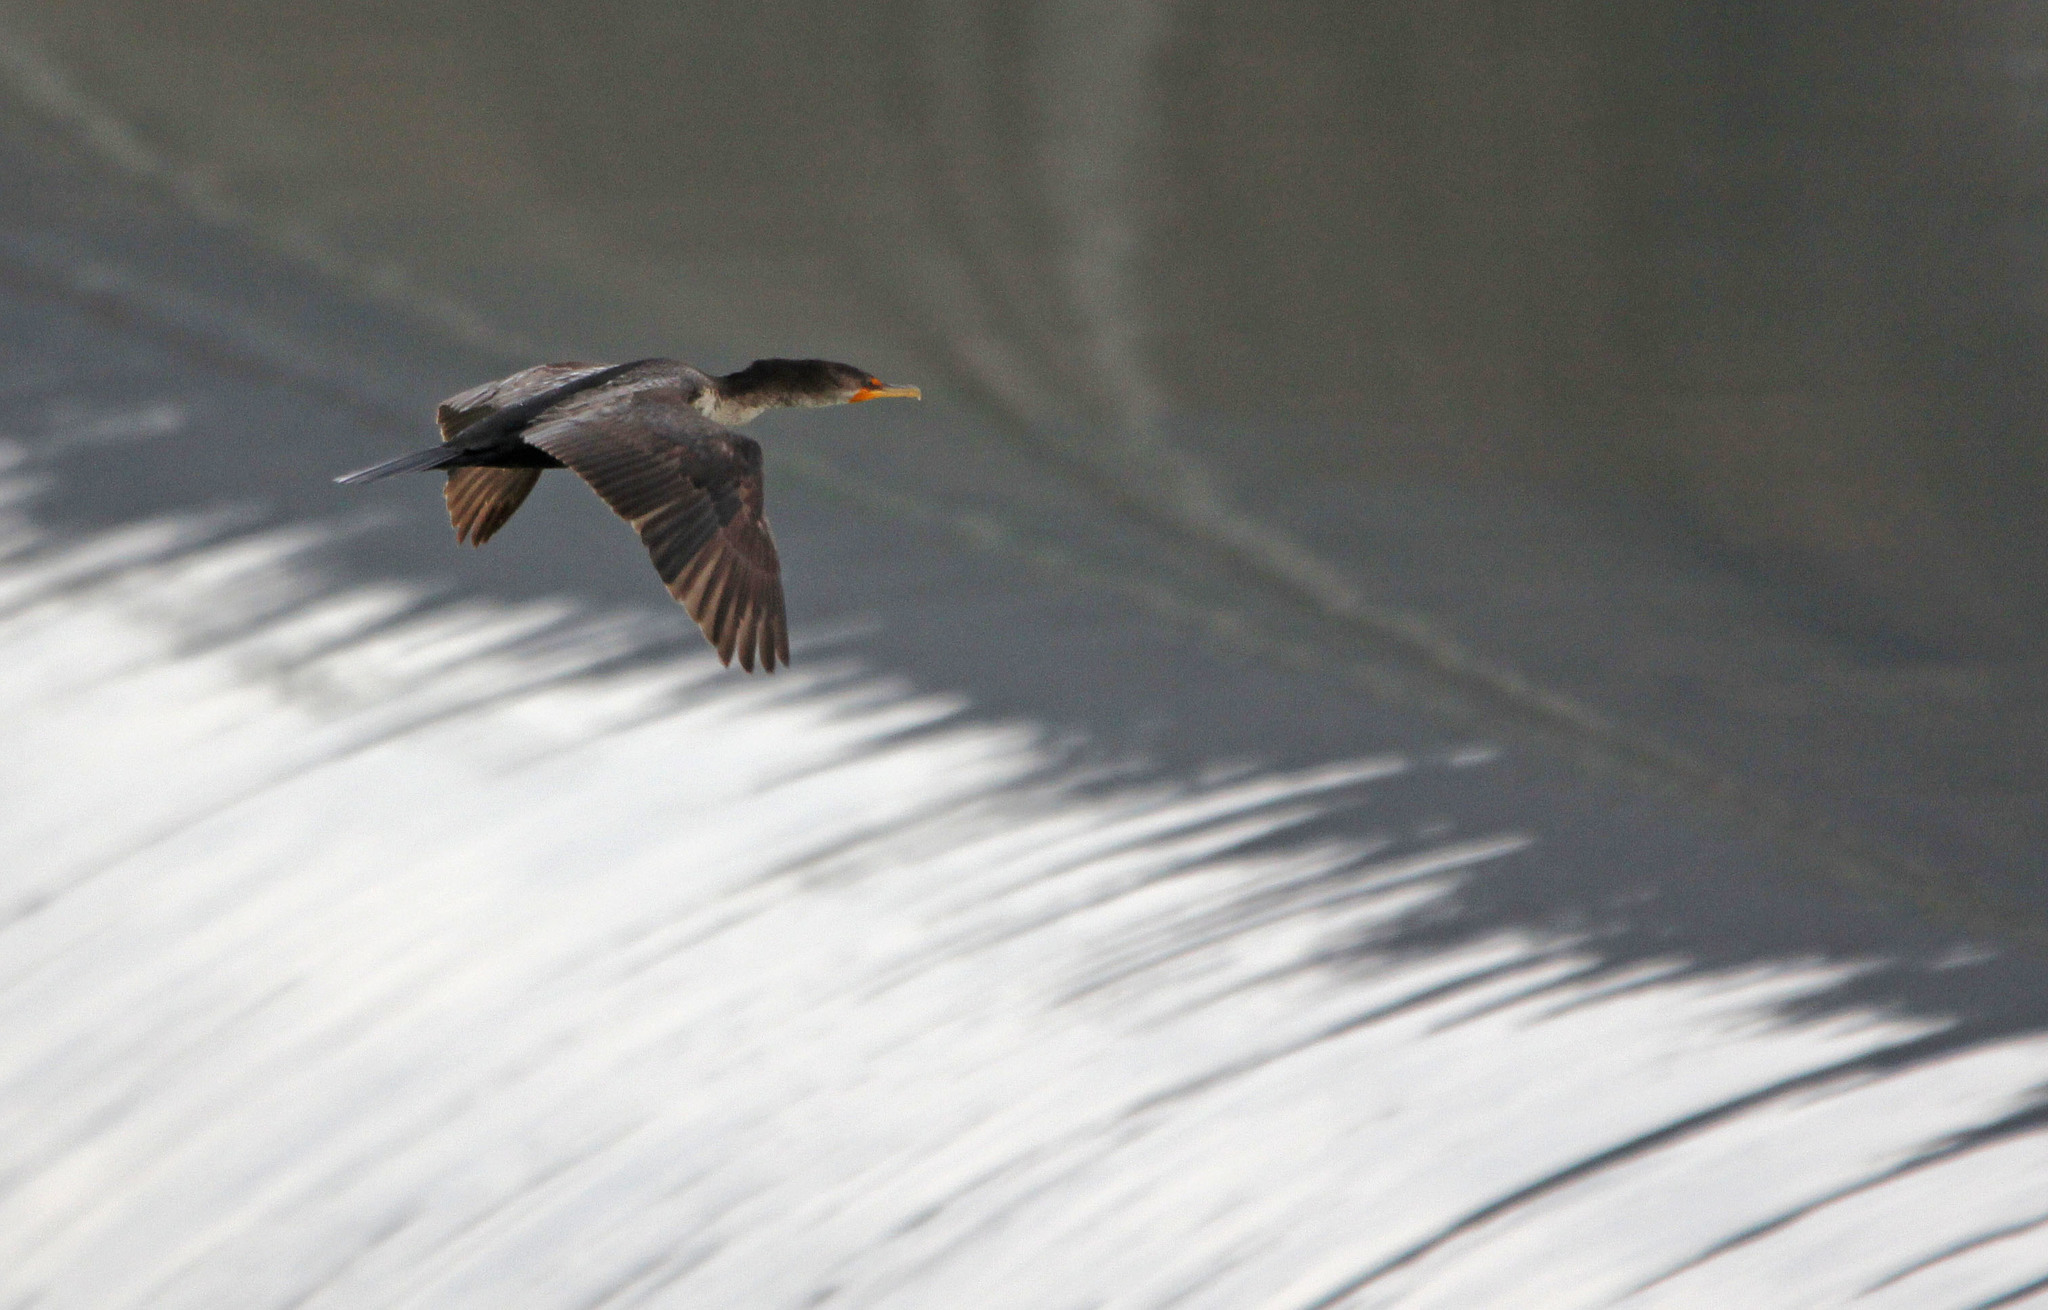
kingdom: Animalia
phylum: Chordata
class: Aves
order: Suliformes
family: Phalacrocoracidae
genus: Phalacrocorax
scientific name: Phalacrocorax auritus
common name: Double-crested cormorant
